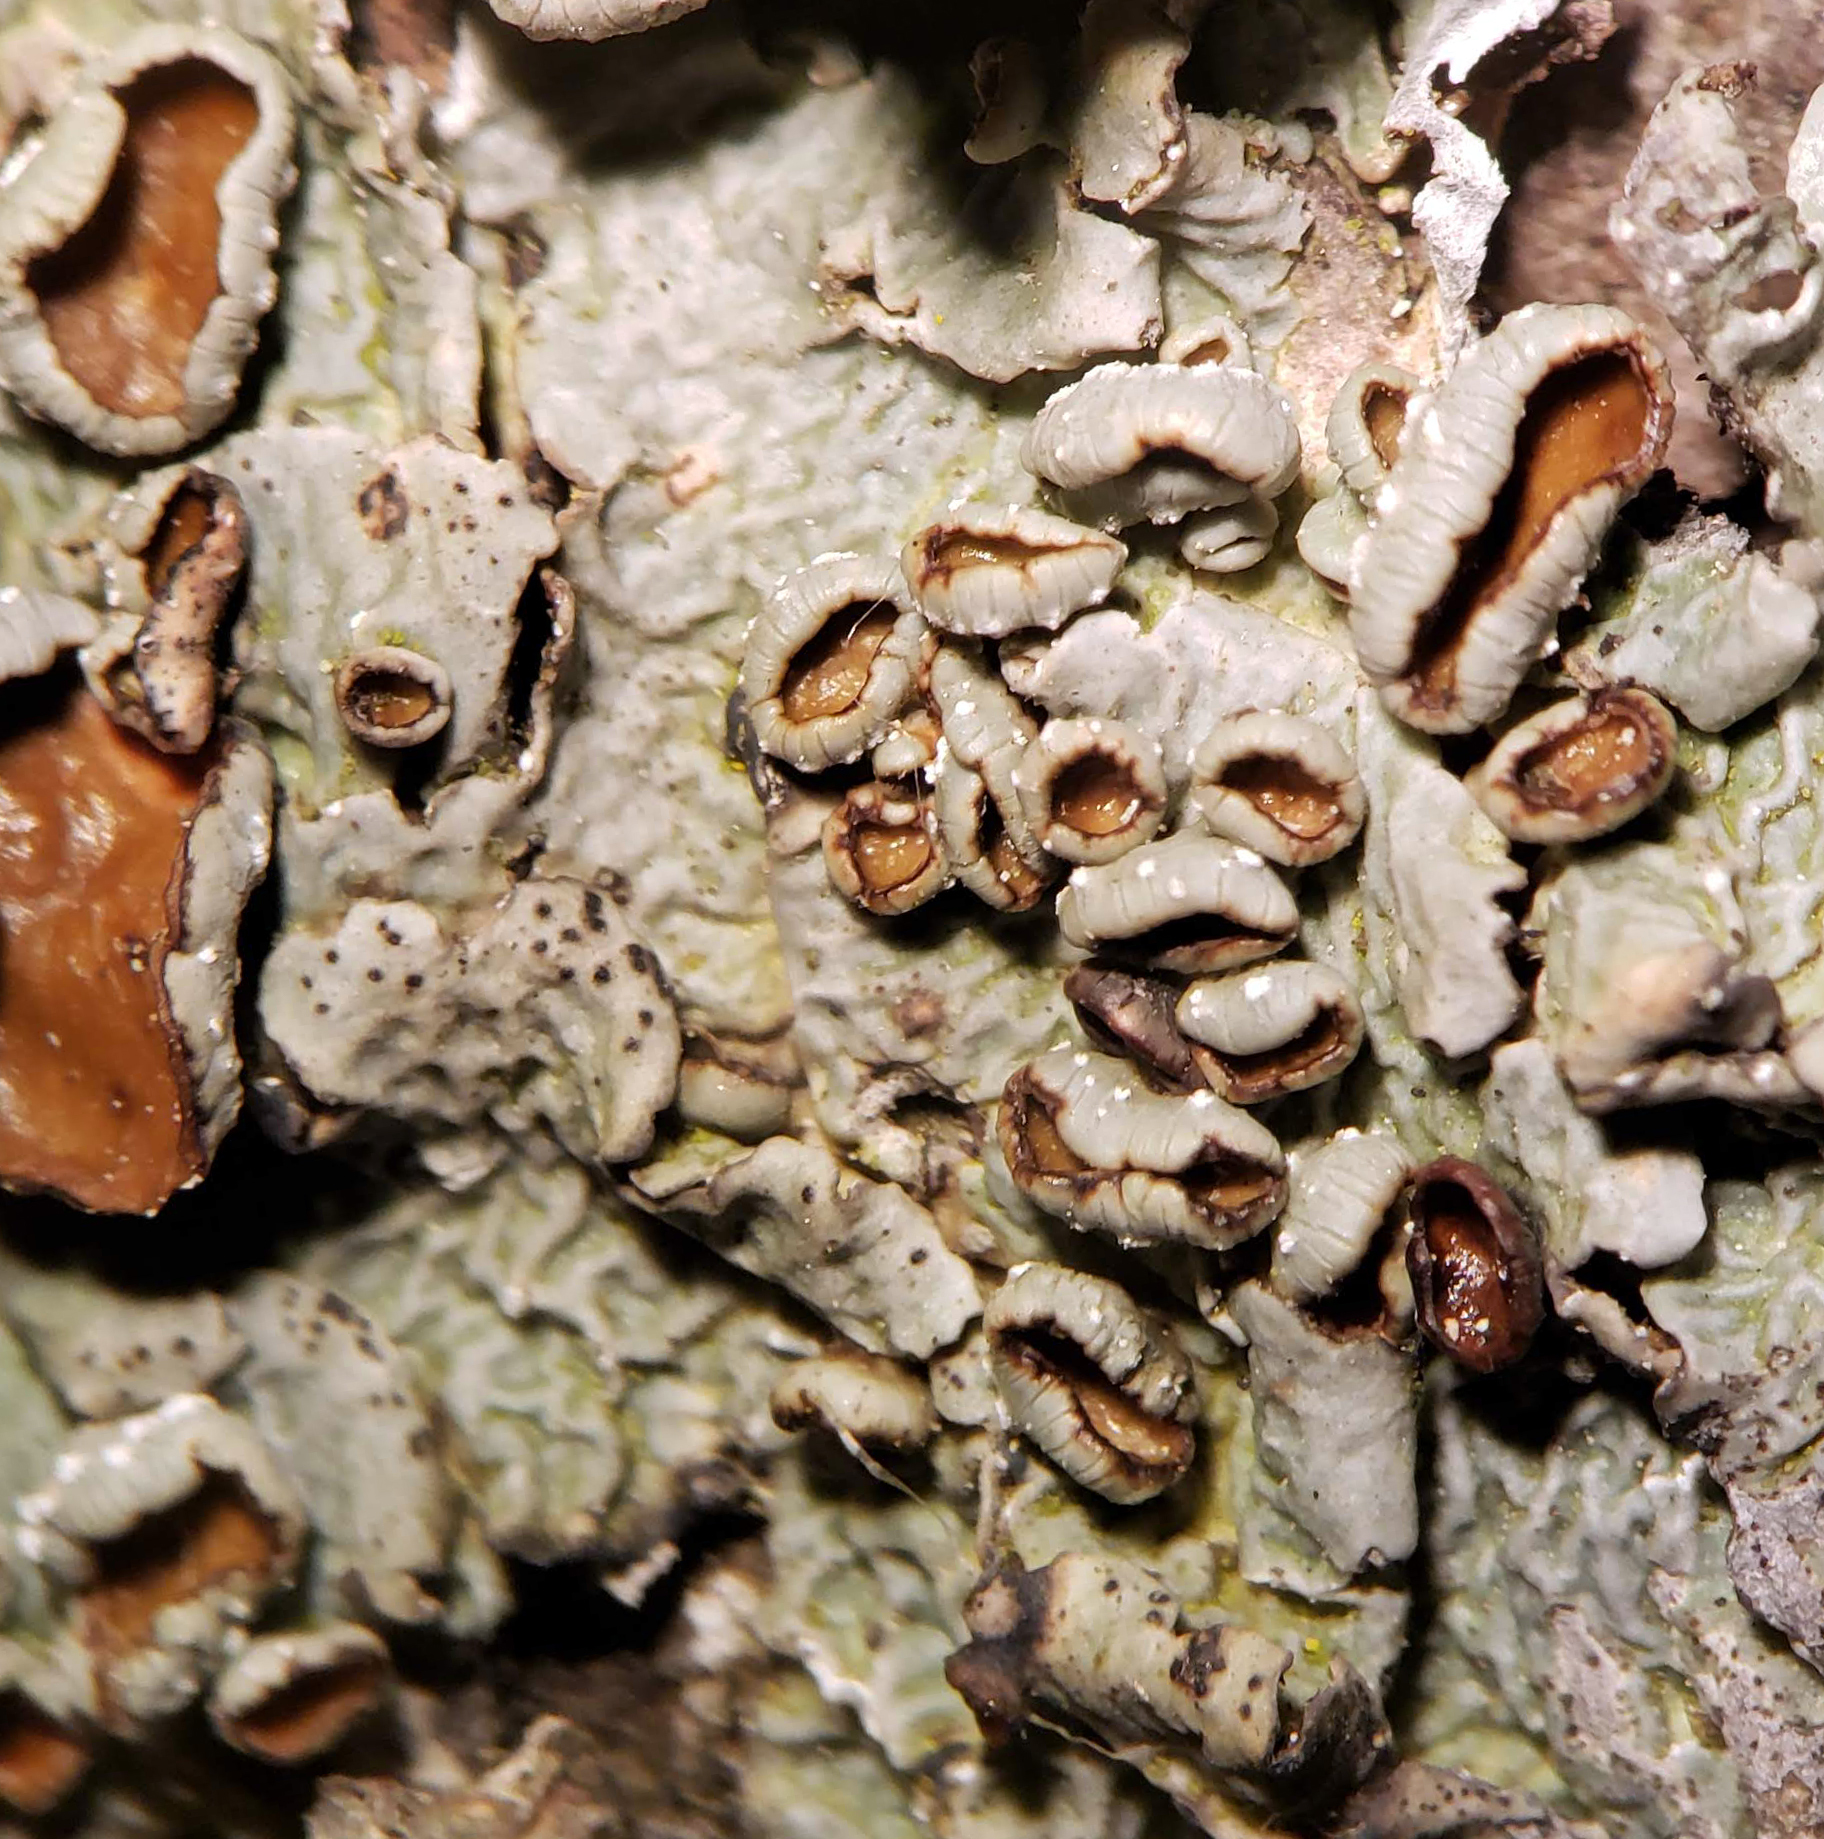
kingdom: Fungi
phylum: Ascomycota
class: Lecanoromycetes
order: Lecanorales
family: Parmeliaceae
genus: Punctelia
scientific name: Punctelia bolliana
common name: Eastern speckled shield lichen
